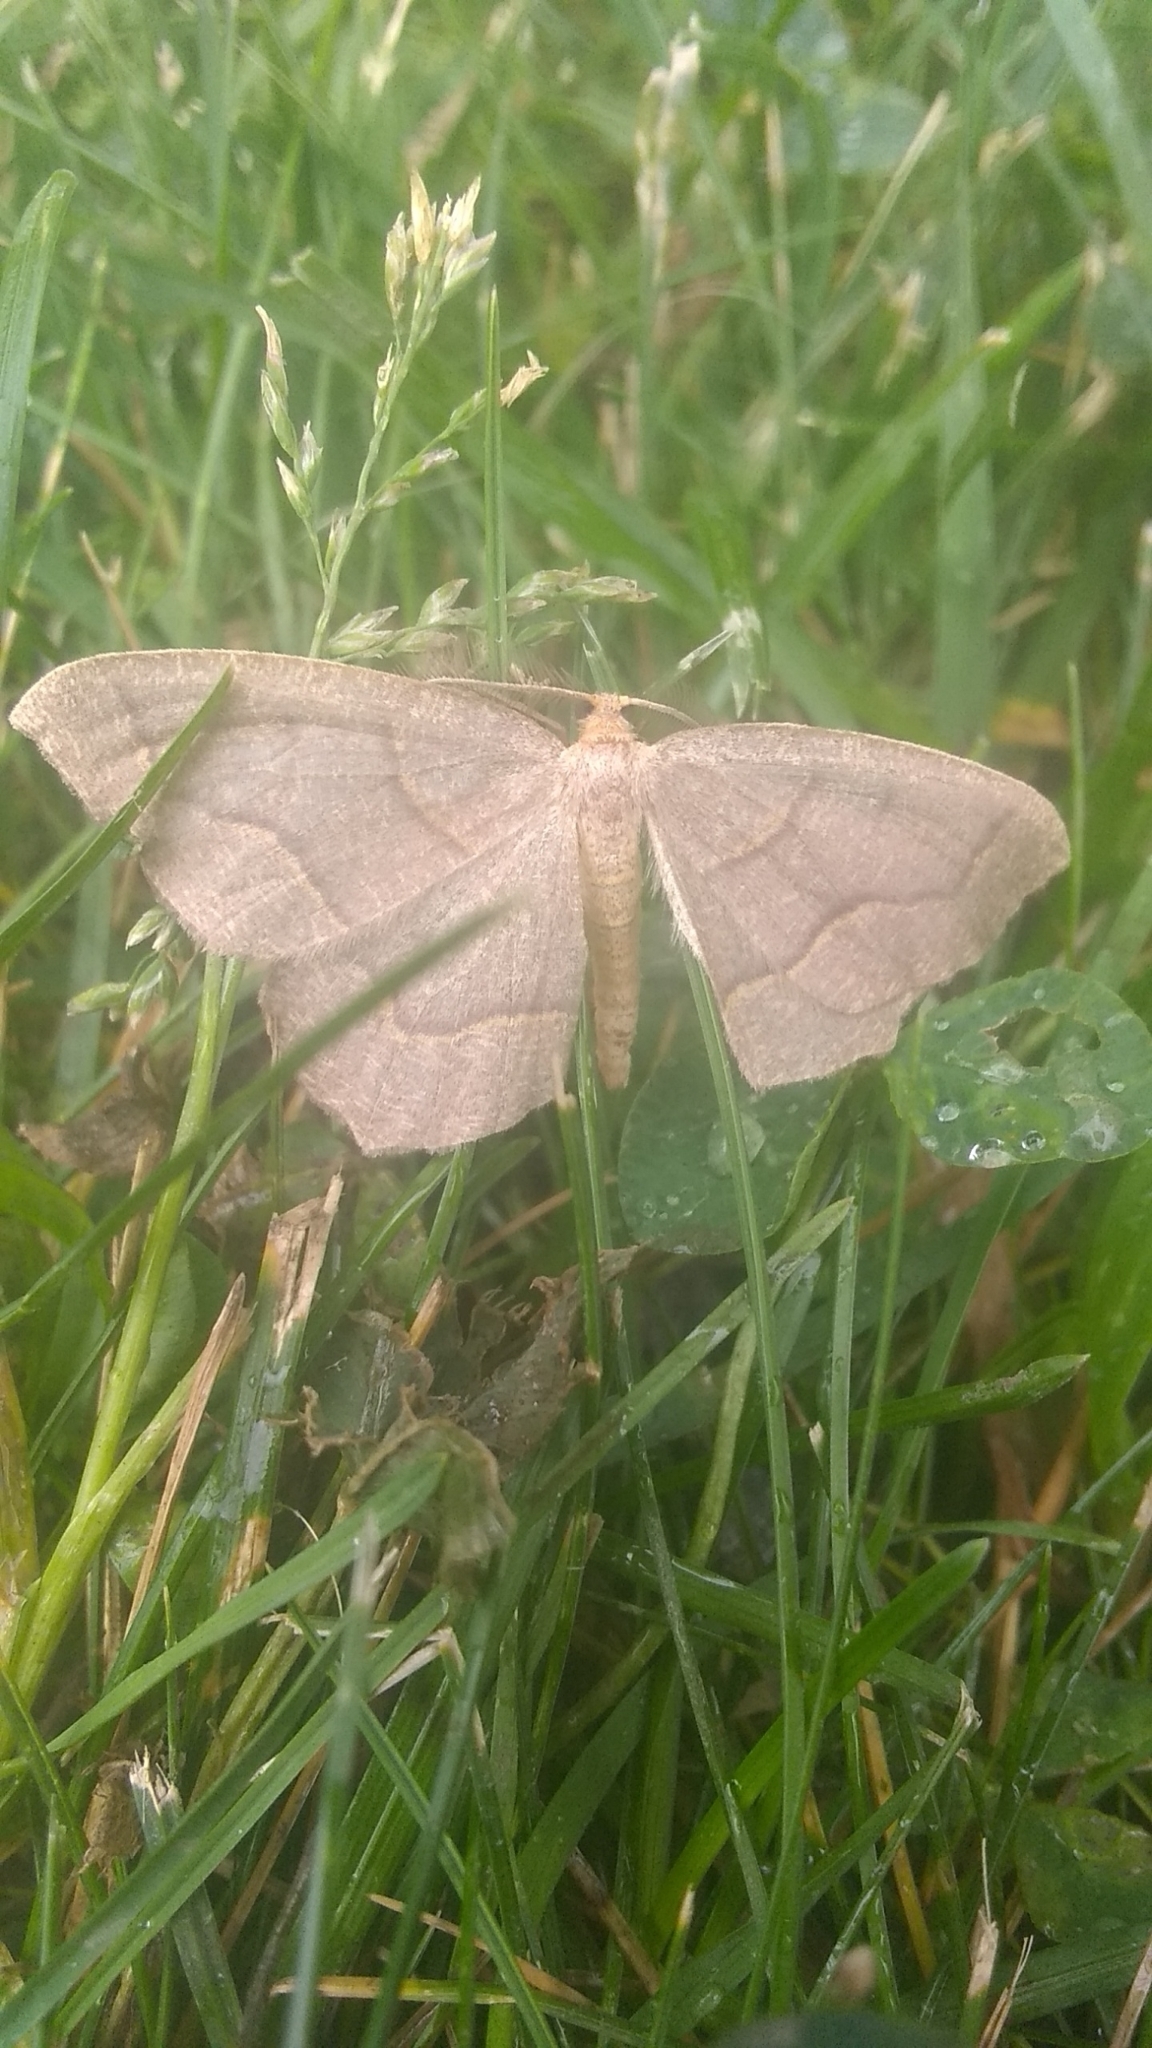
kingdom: Animalia
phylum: Arthropoda
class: Insecta
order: Lepidoptera
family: Geometridae
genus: Lambdina
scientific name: Lambdina fiscellaria
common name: Hemlock looper
